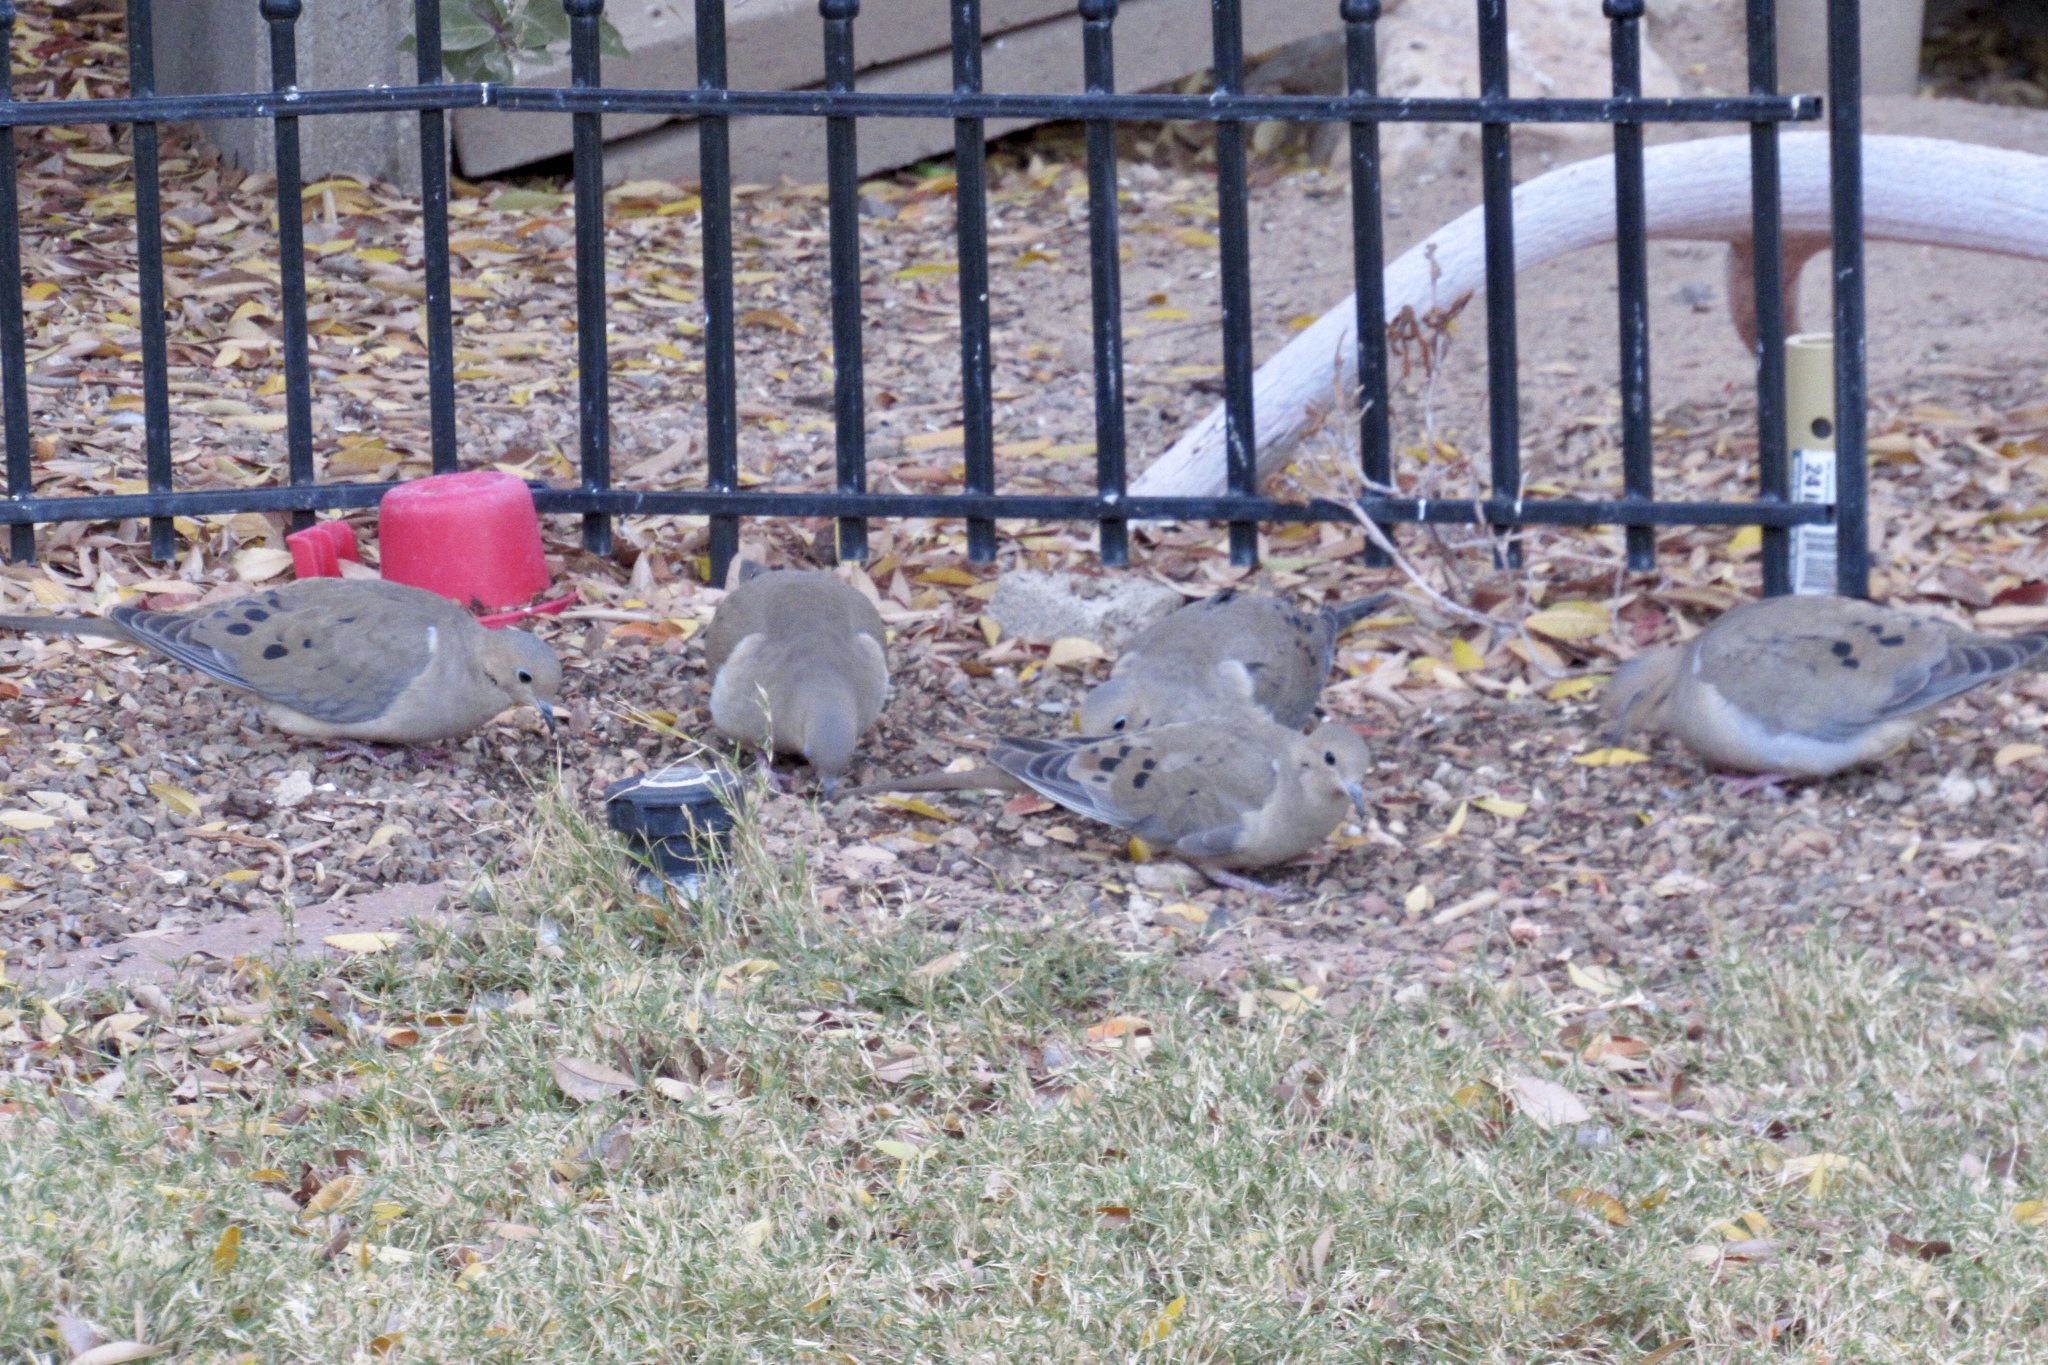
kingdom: Animalia
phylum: Chordata
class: Aves
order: Columbiformes
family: Columbidae
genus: Zenaida
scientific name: Zenaida macroura
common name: Mourning dove
